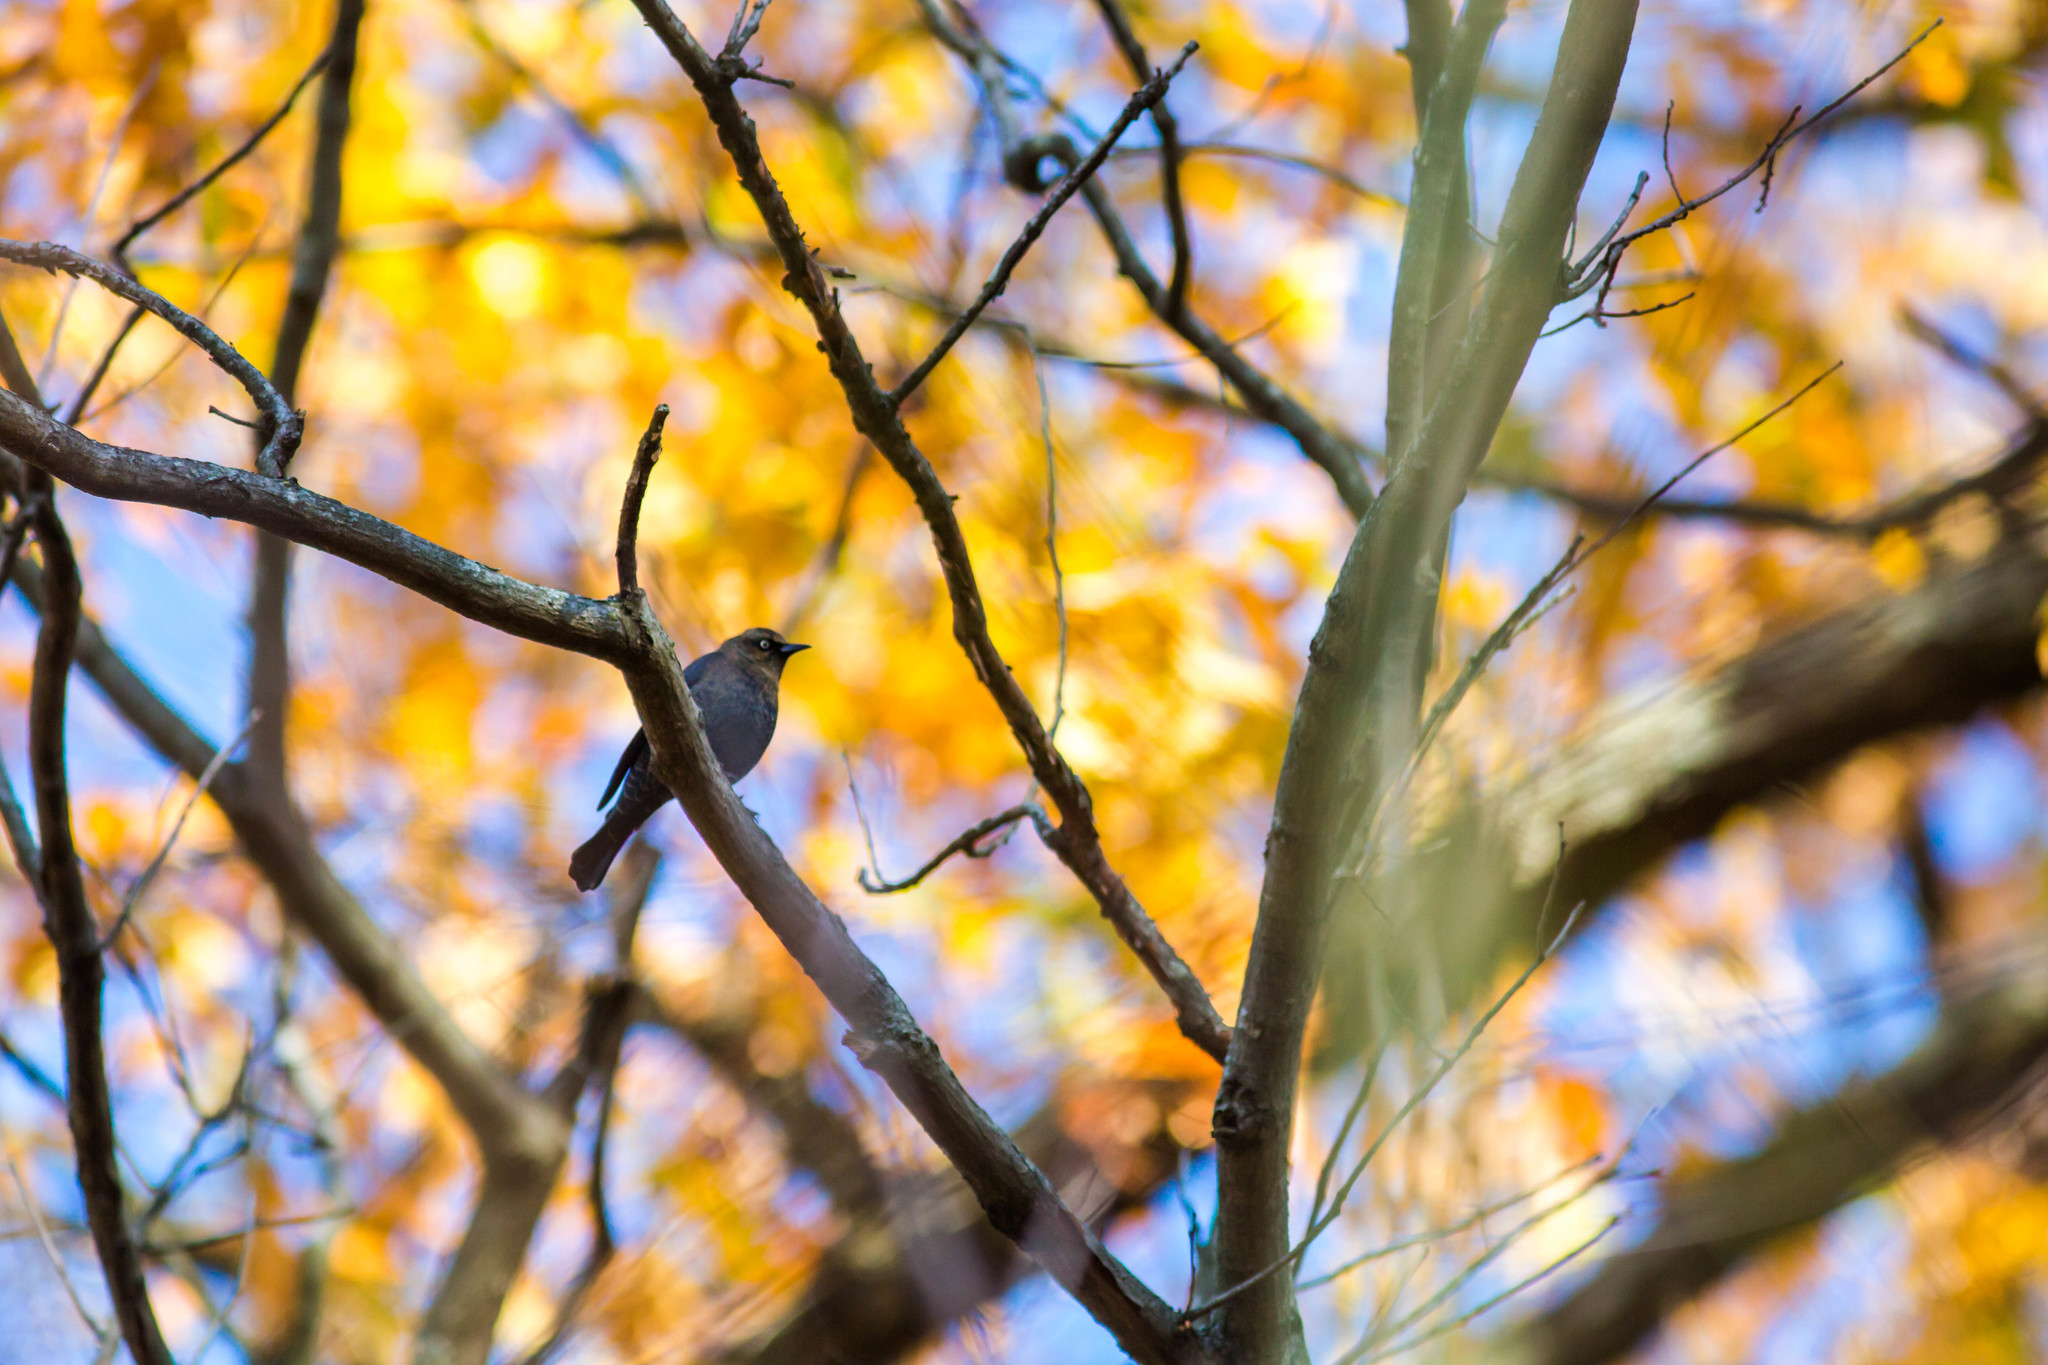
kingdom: Animalia
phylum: Chordata
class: Aves
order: Passeriformes
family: Icteridae
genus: Euphagus
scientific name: Euphagus carolinus
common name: Rusty blackbird
